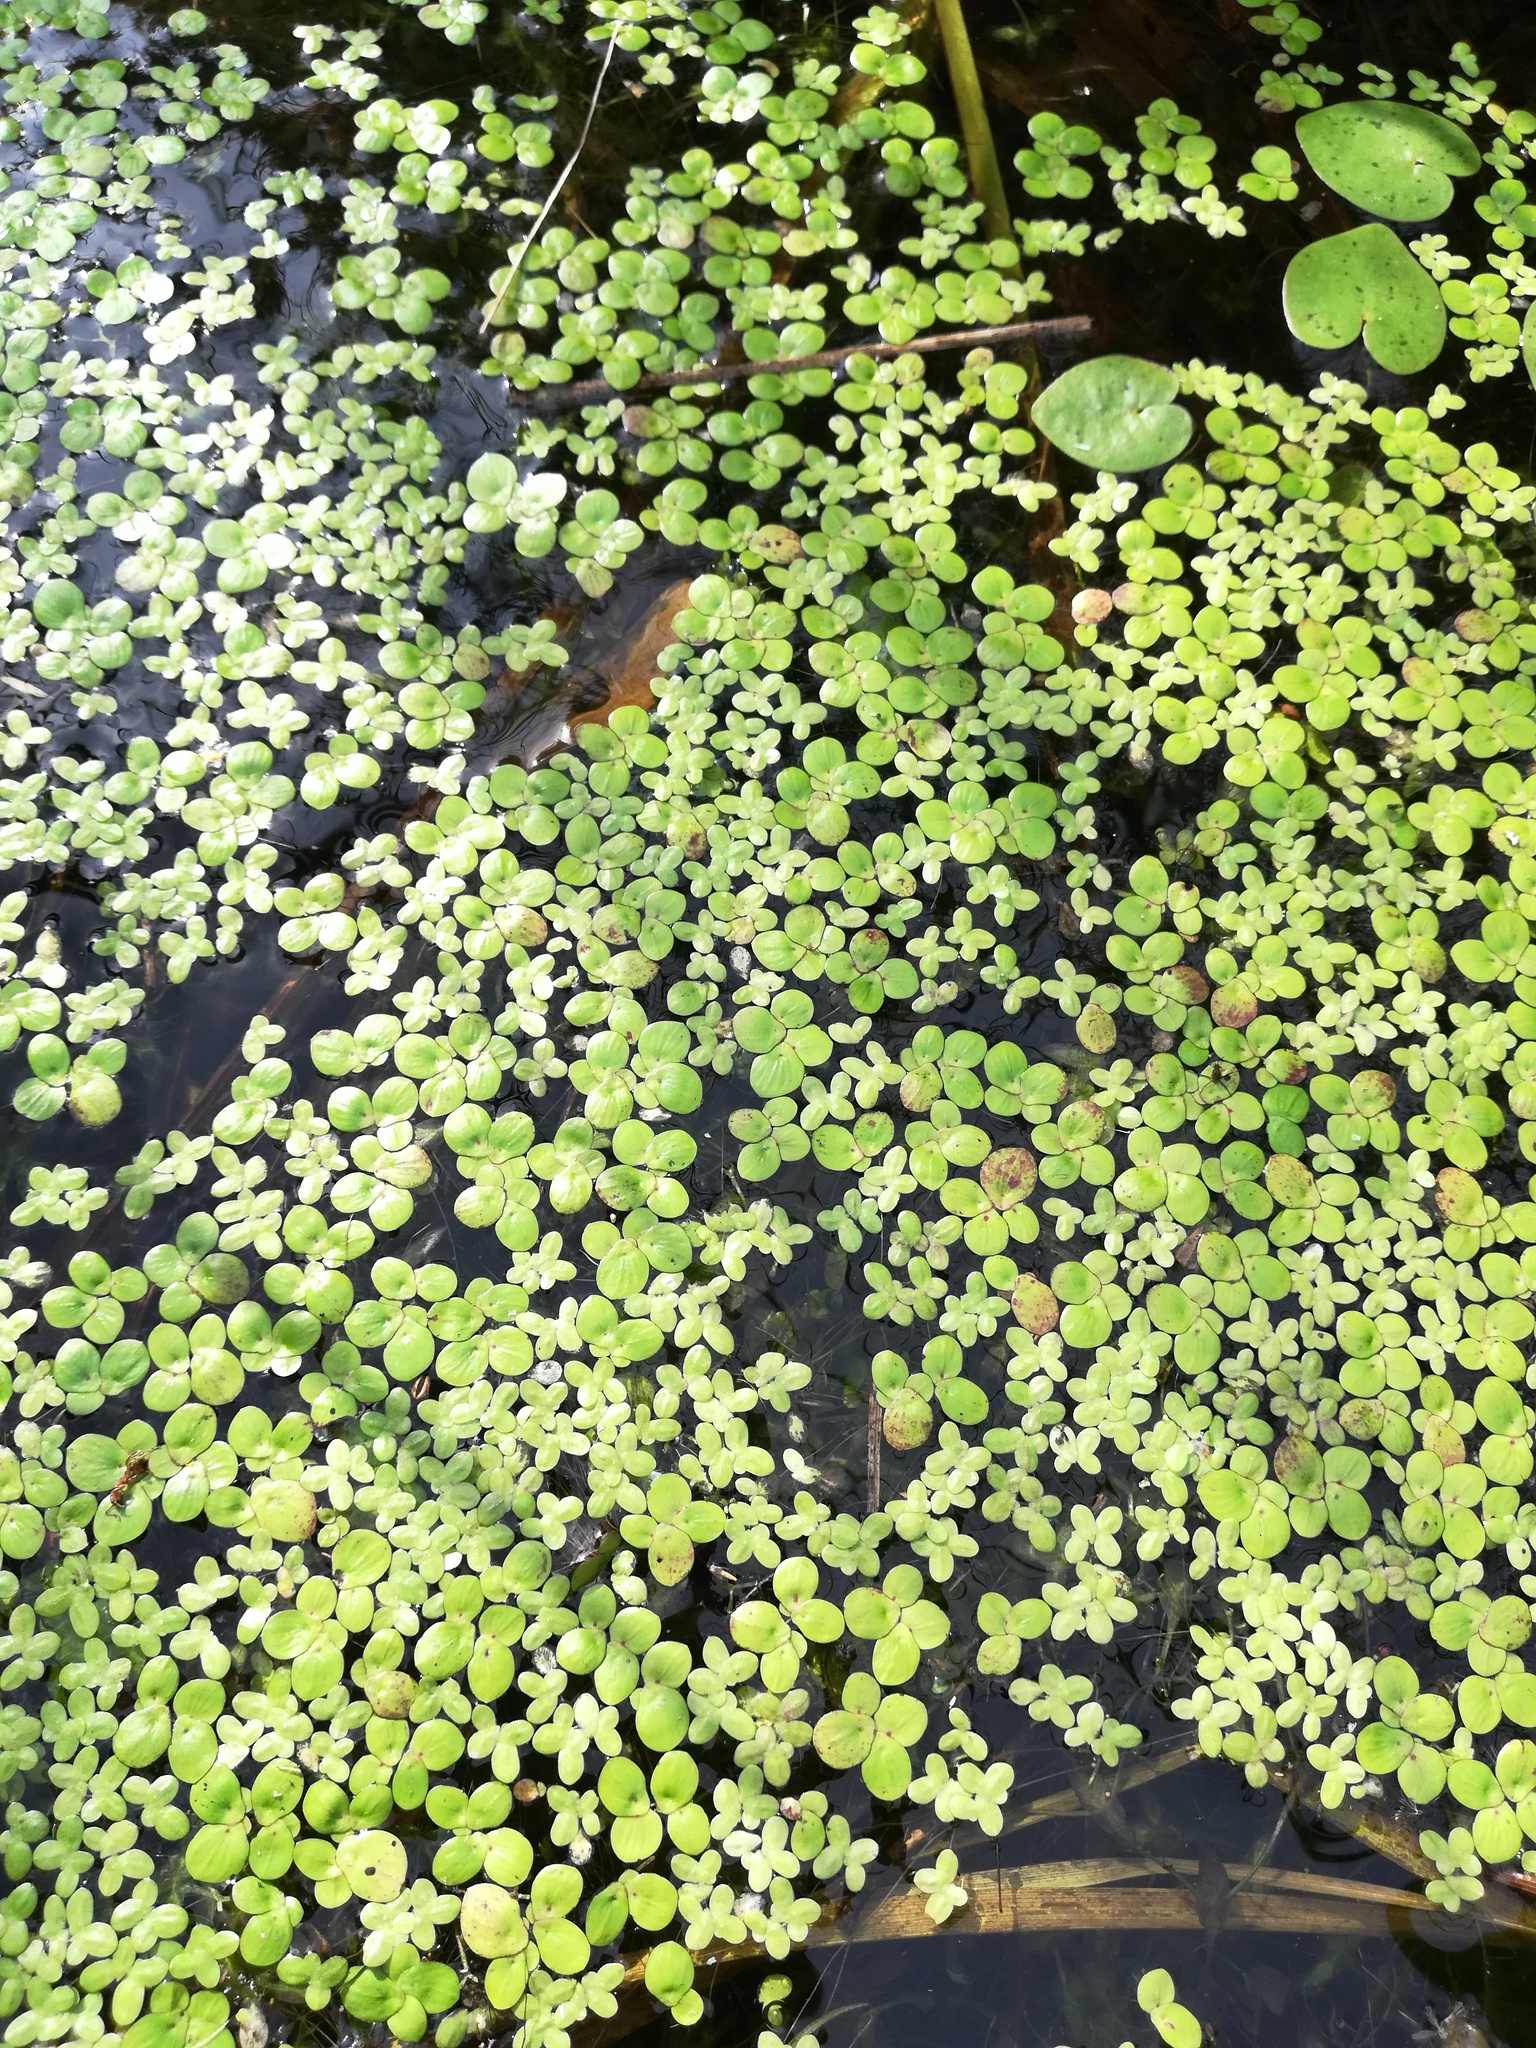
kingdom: Plantae
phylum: Tracheophyta
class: Liliopsida
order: Alismatales
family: Araceae
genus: Spirodela
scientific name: Spirodela polyrhiza
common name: Great duckweed
